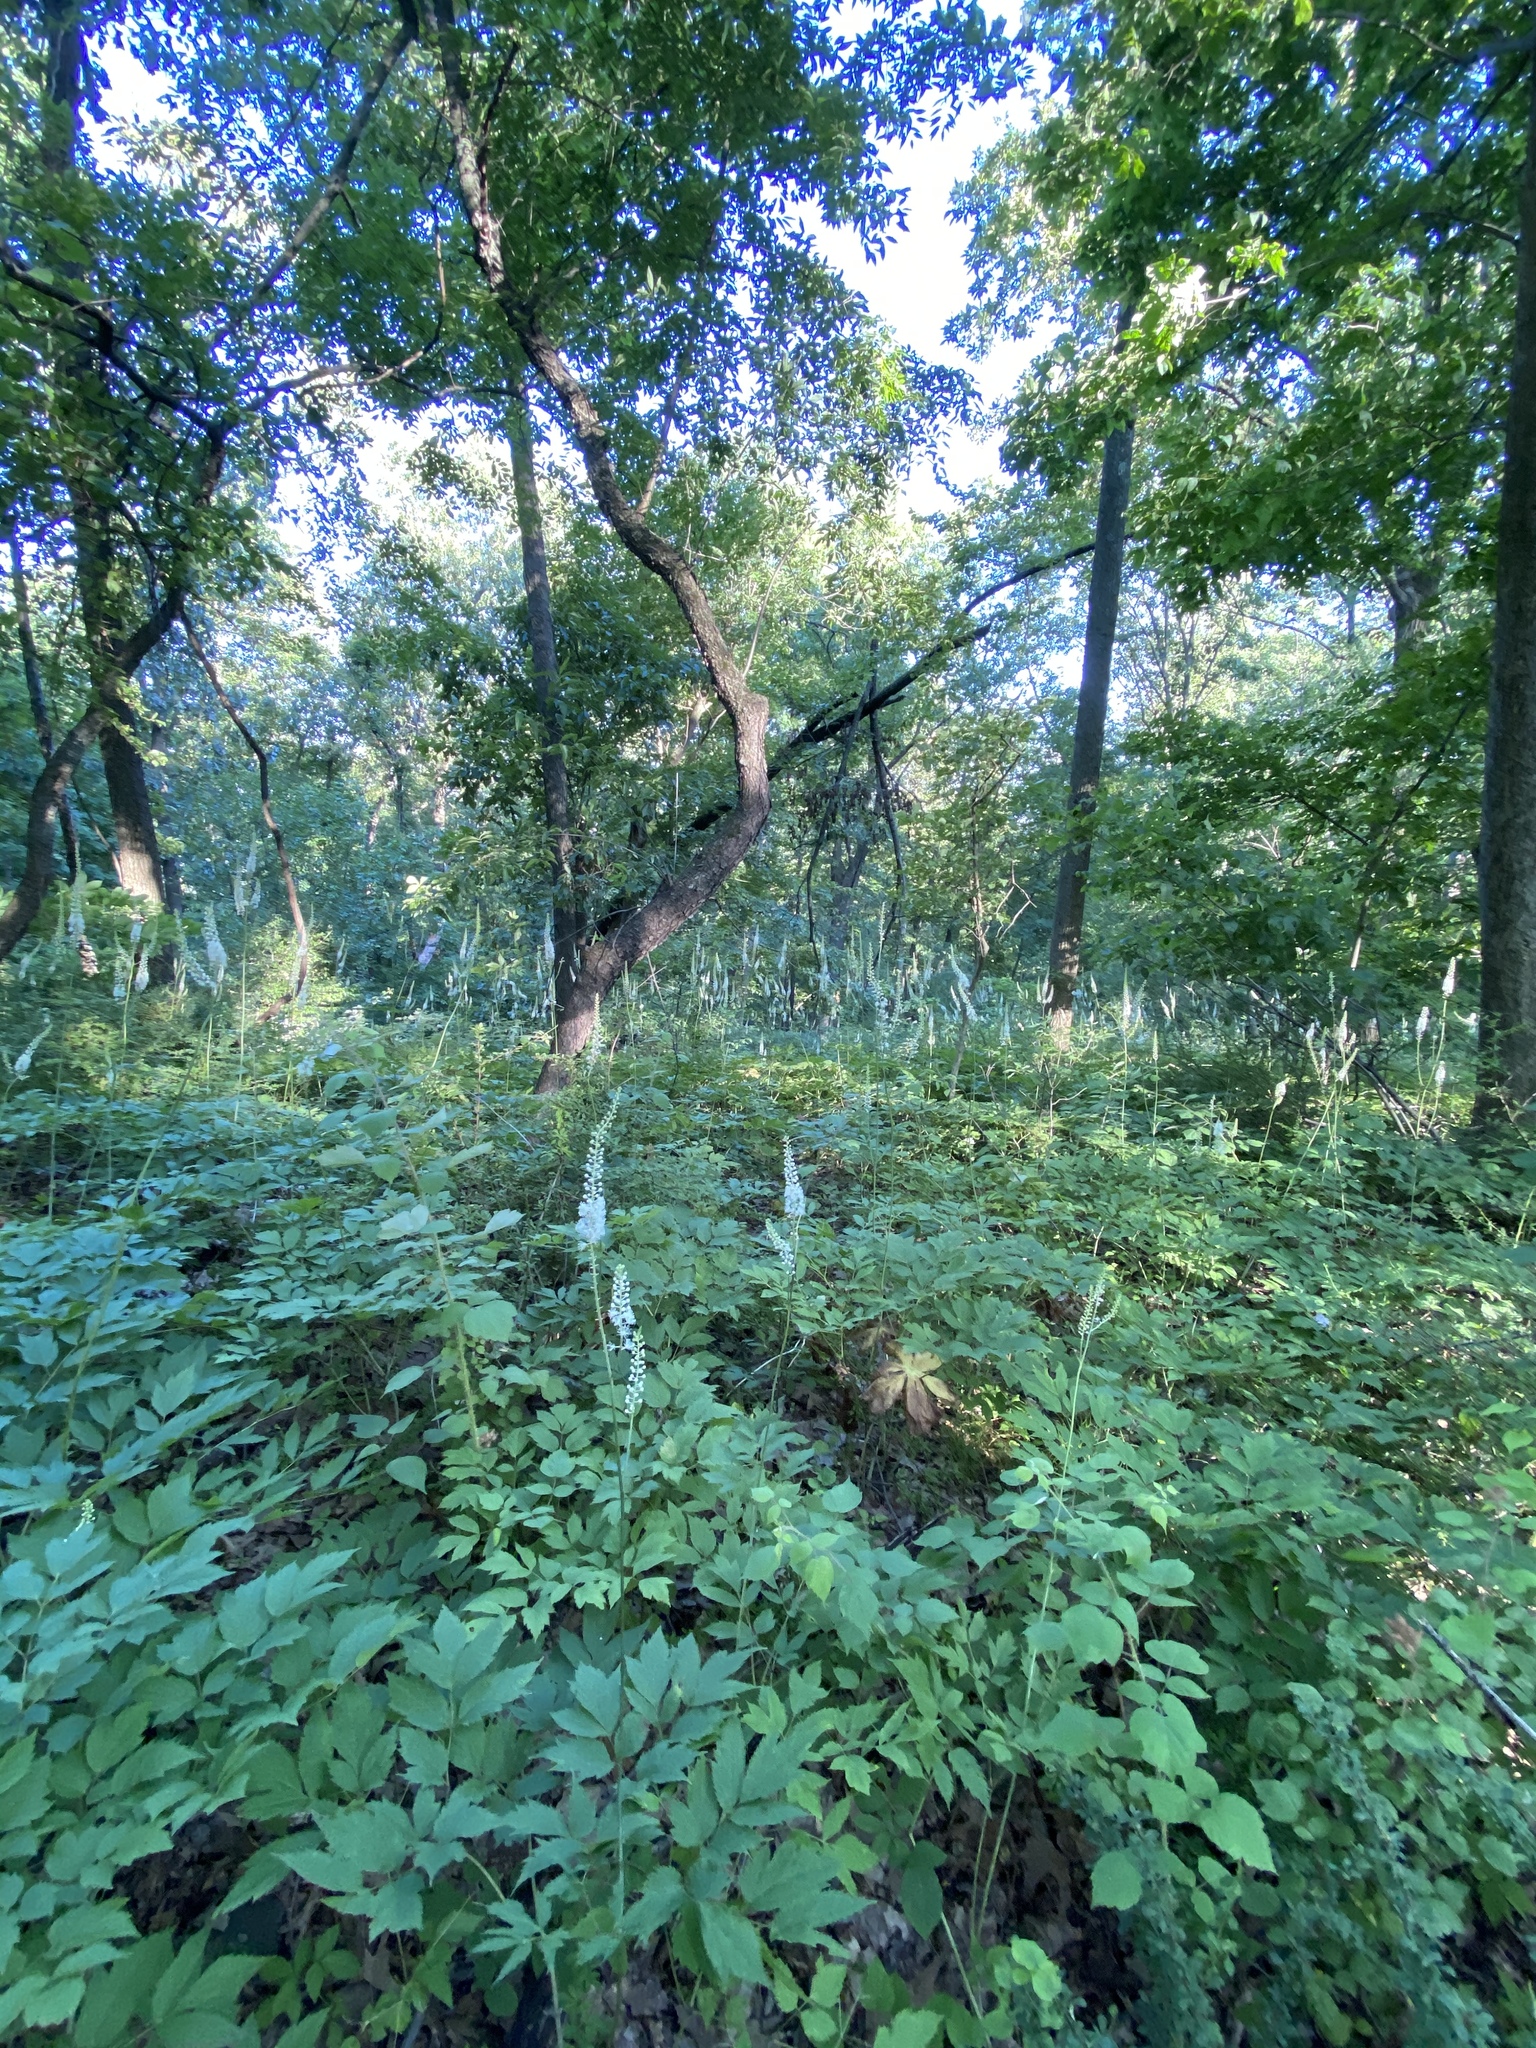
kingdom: Plantae
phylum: Tracheophyta
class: Magnoliopsida
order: Ranunculales
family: Ranunculaceae
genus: Actaea
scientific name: Actaea racemosa
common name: Black cohosh
